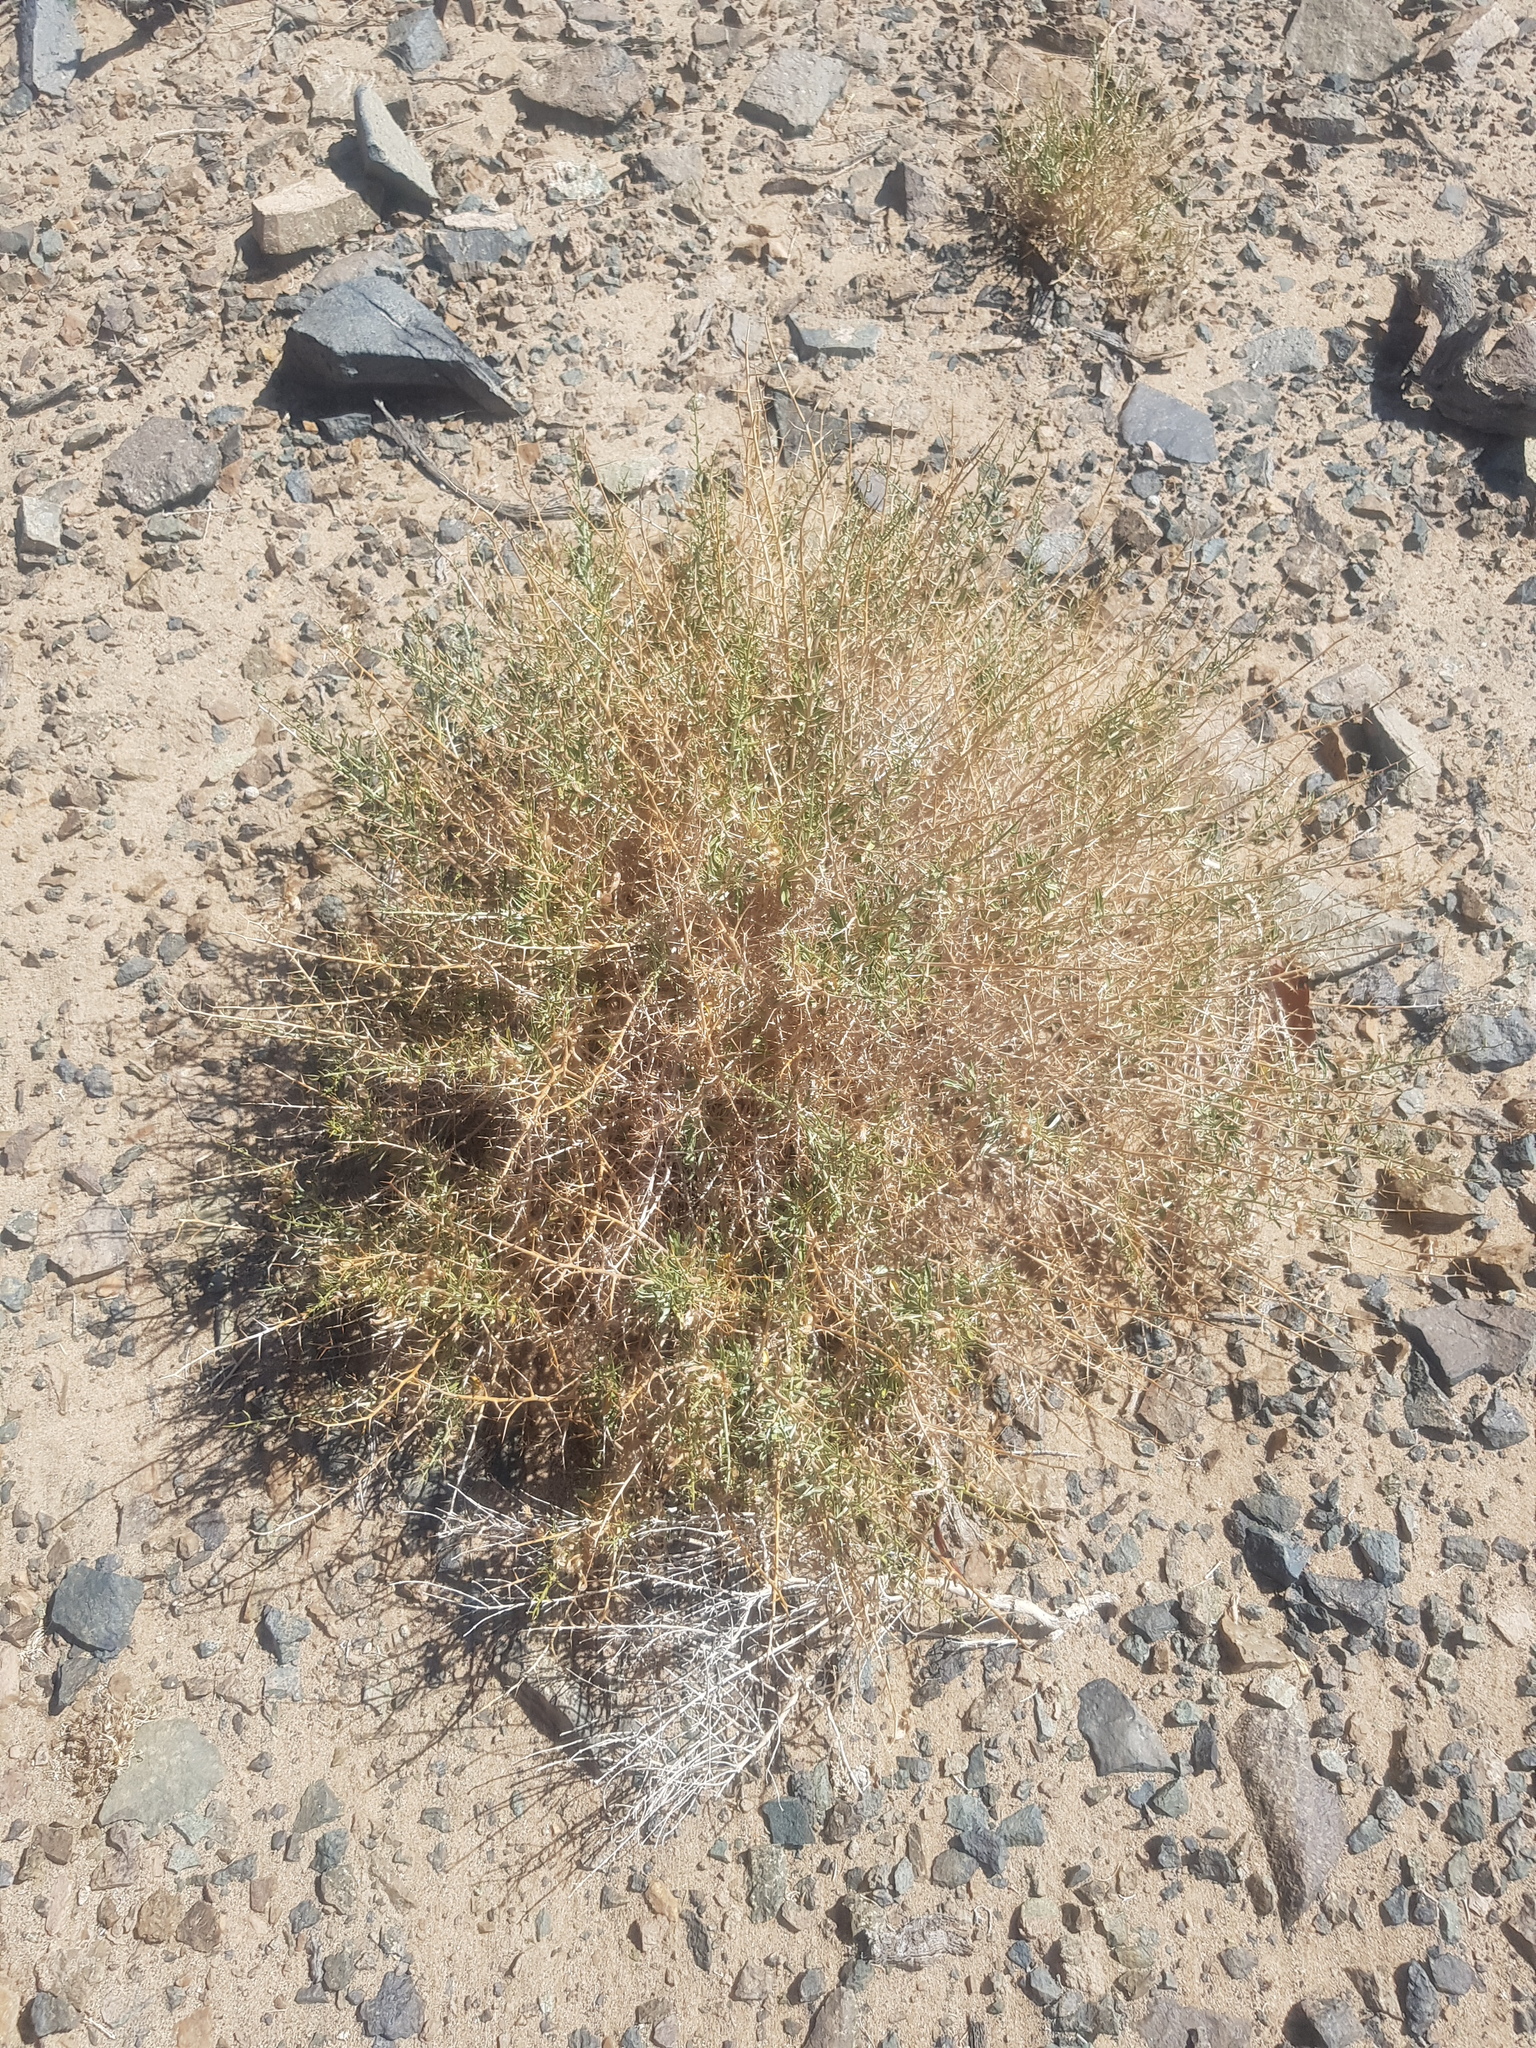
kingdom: Plantae
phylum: Tracheophyta
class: Magnoliopsida
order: Solanales
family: Convolvulaceae
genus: Convolvulus
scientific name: Convolvulus fruticosus
